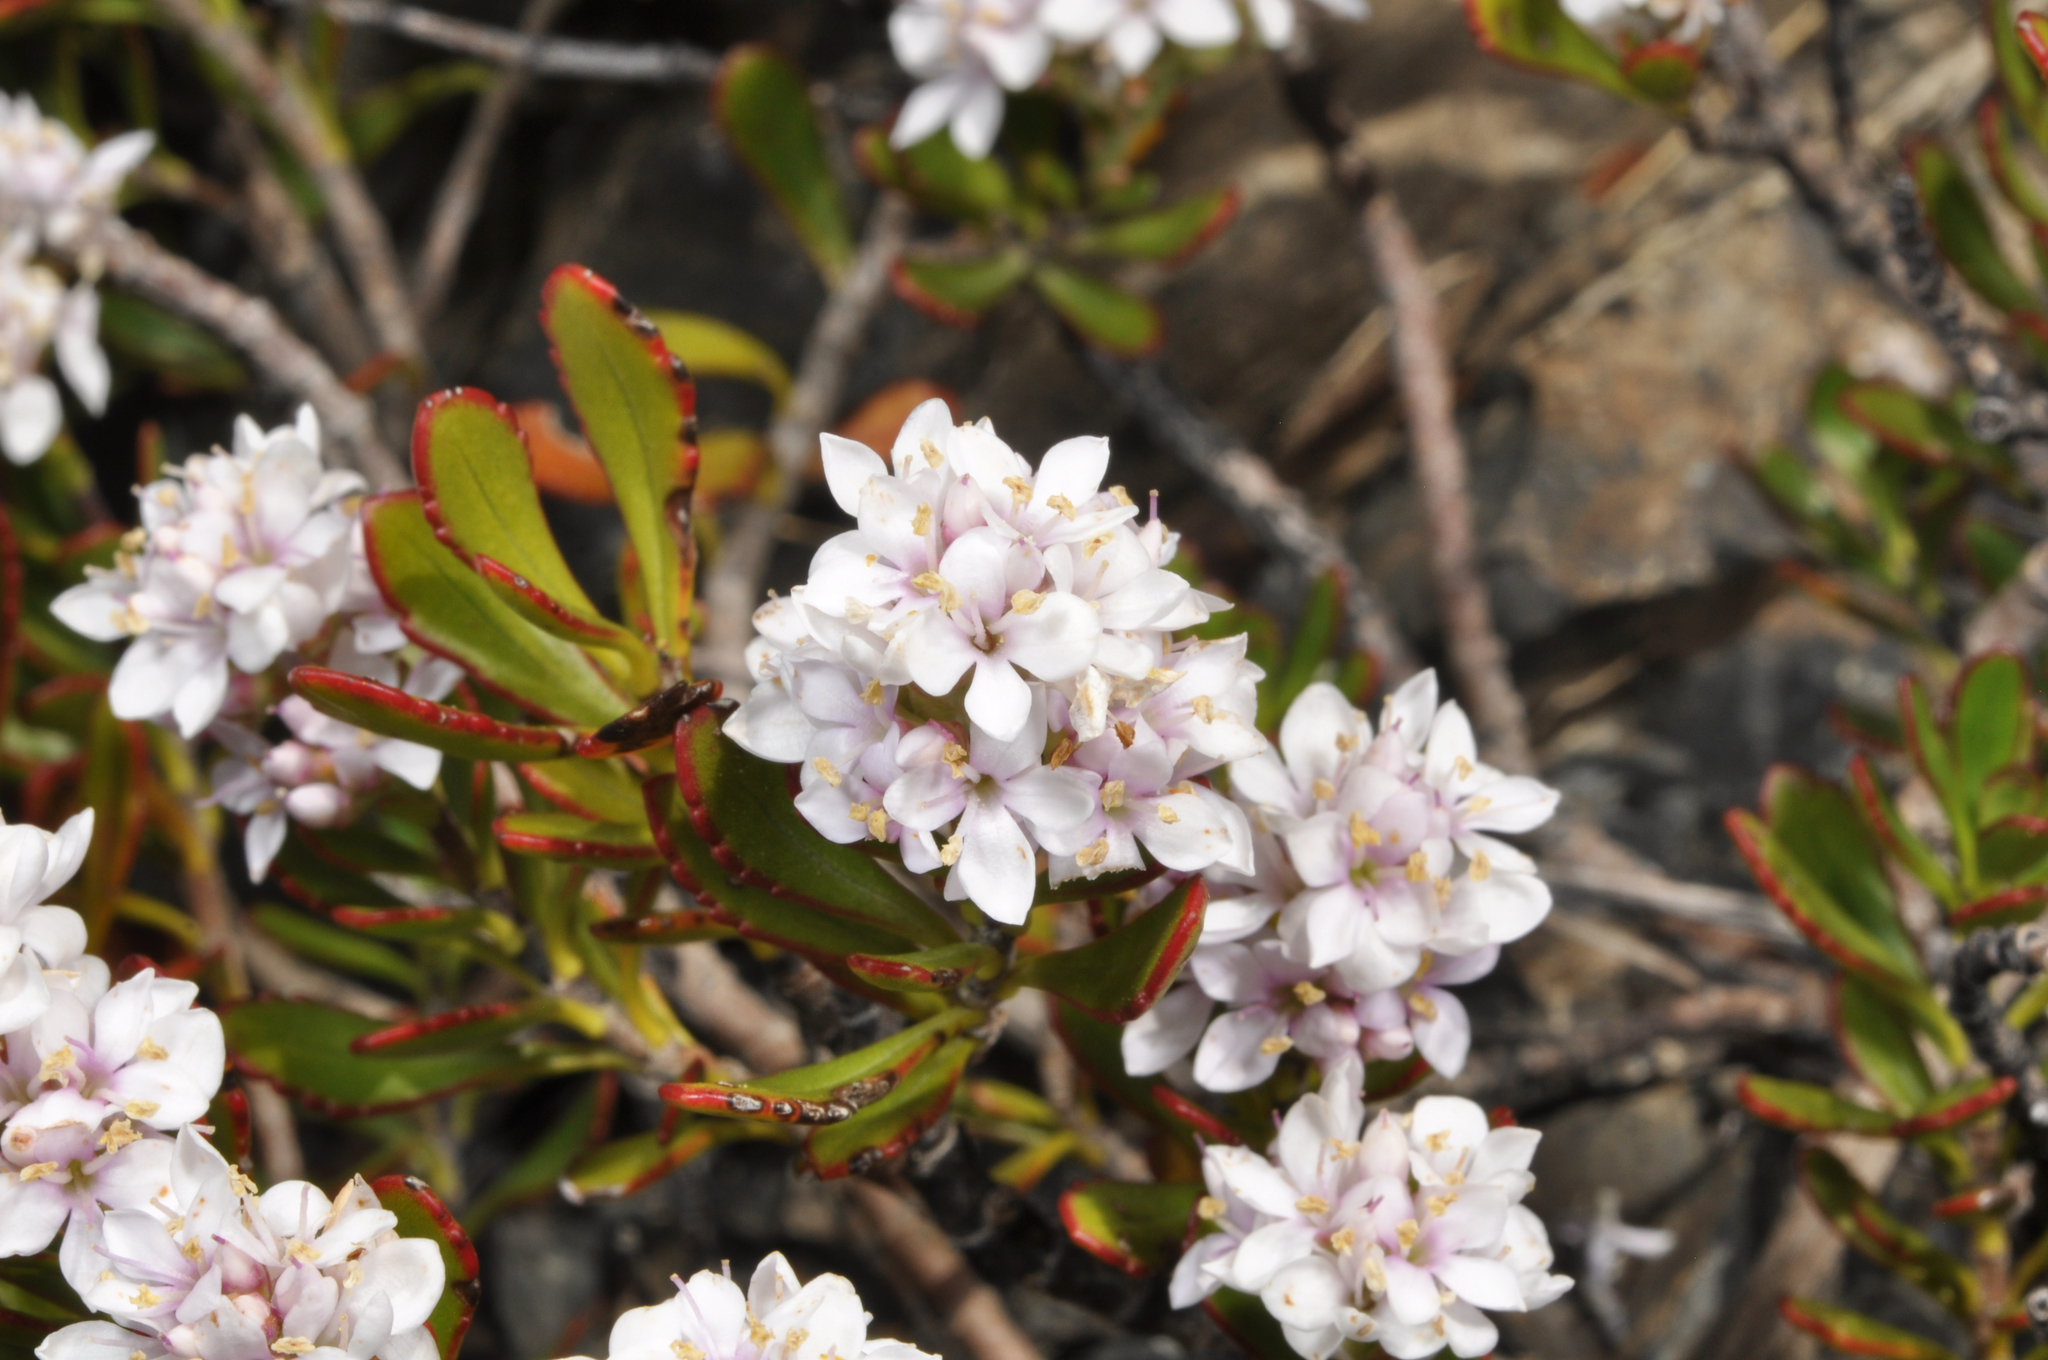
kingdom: Plantae
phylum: Tracheophyta
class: Magnoliopsida
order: Lamiales
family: Plantaginaceae
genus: Veronica
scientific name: Veronica raoulii
